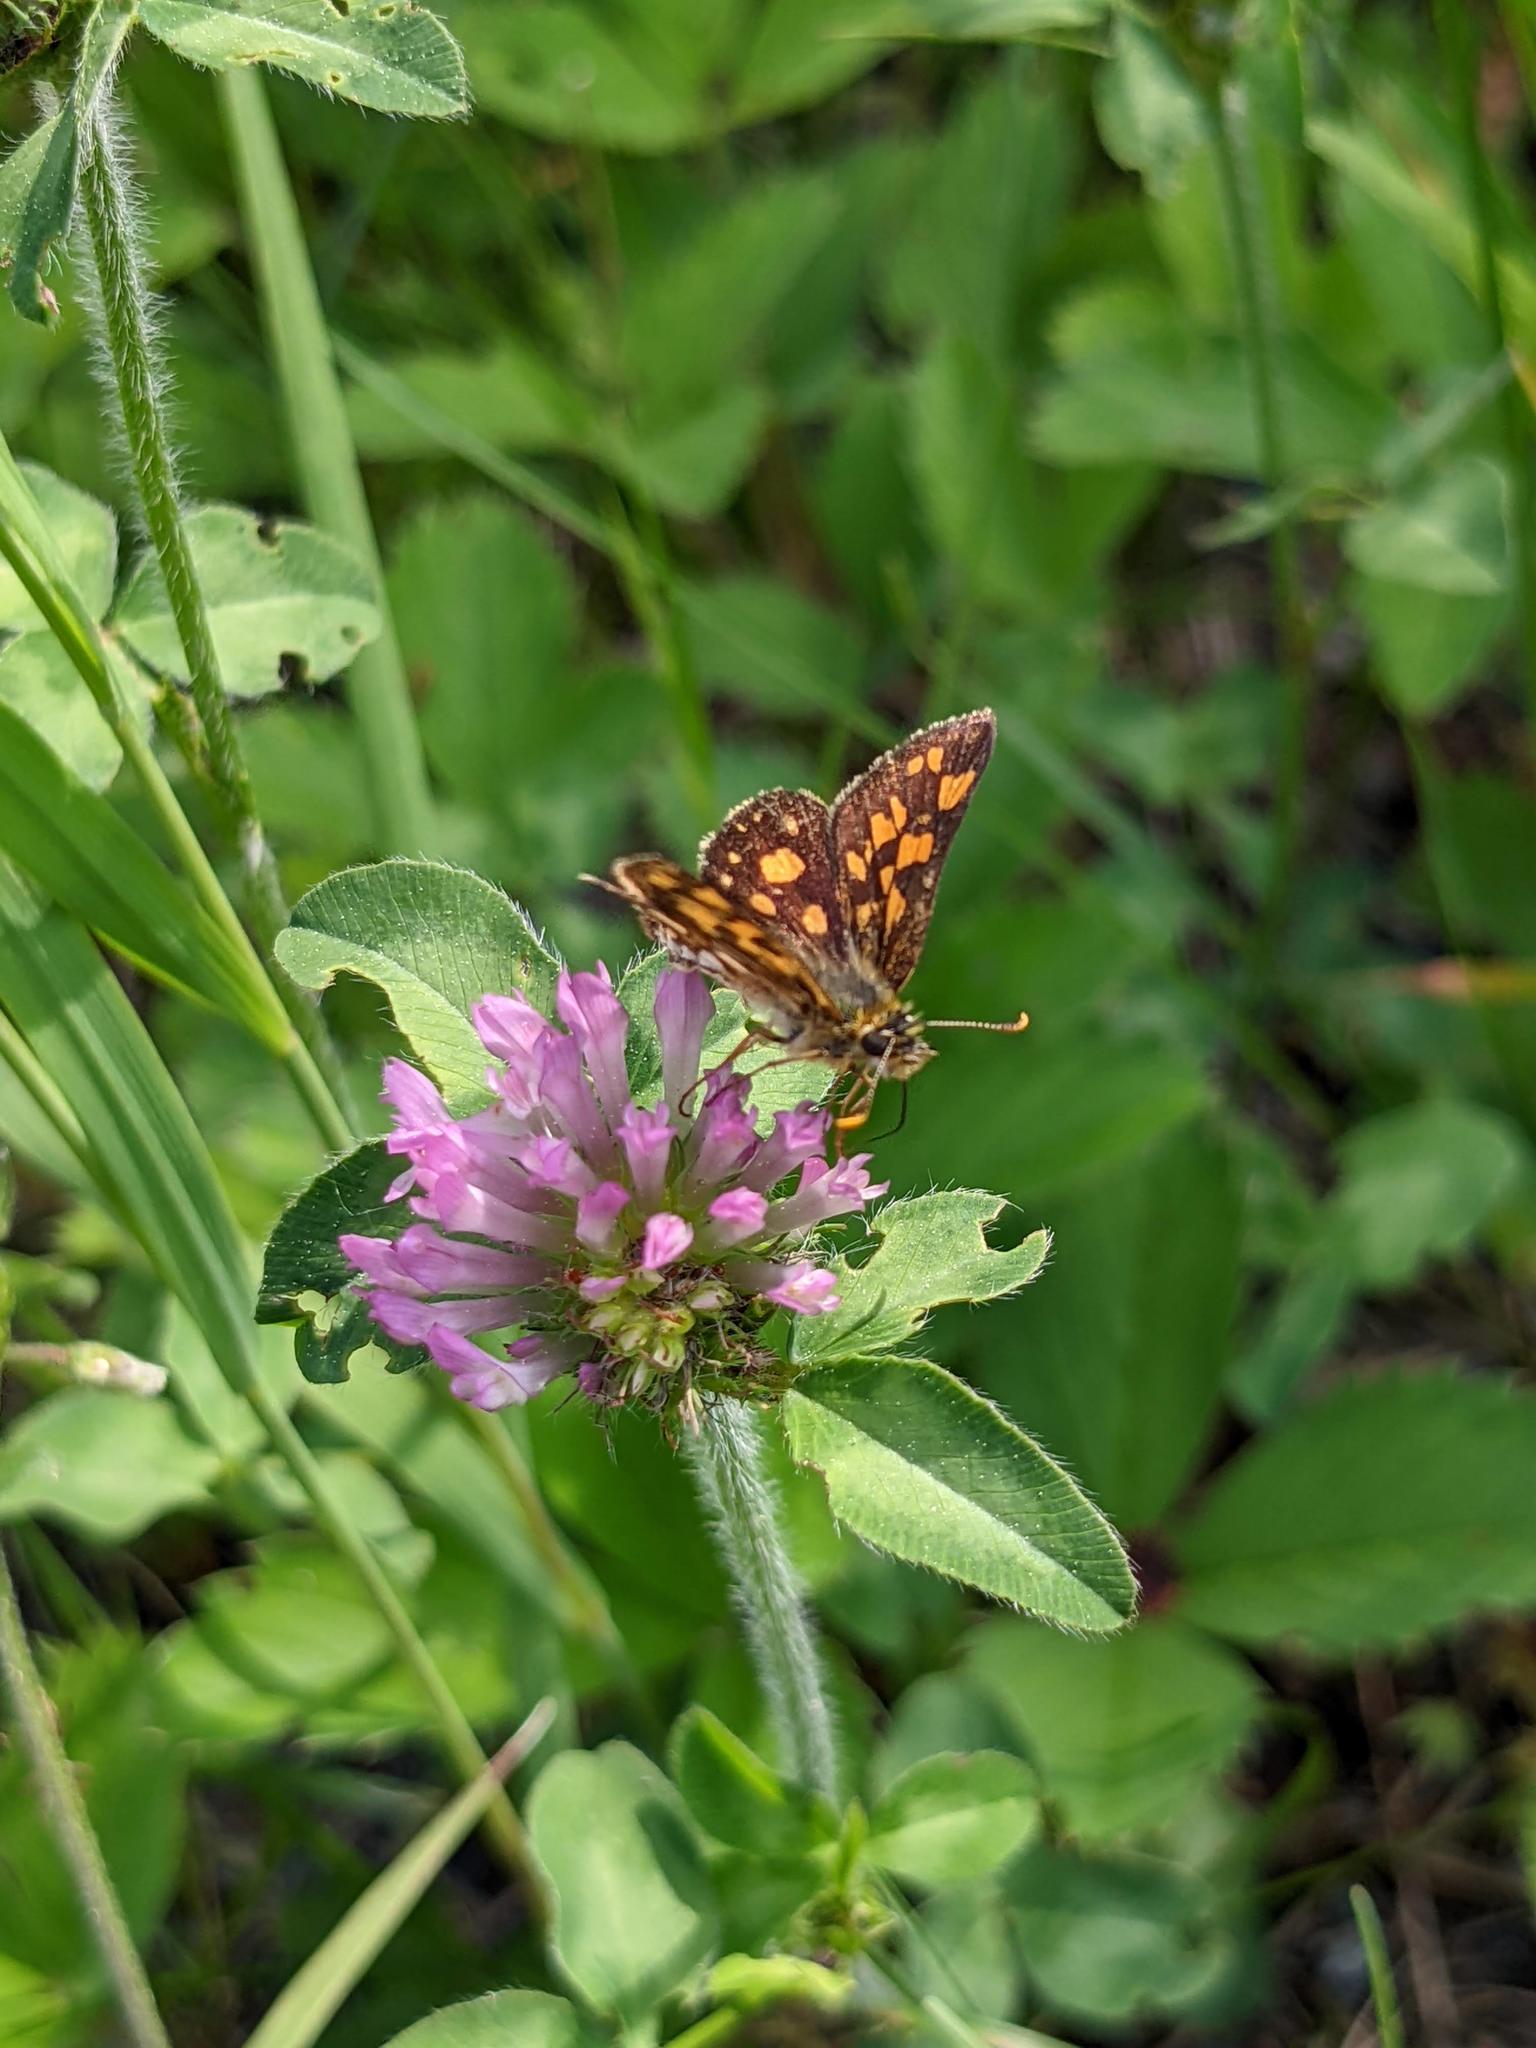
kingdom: Animalia
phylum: Arthropoda
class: Insecta
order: Lepidoptera
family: Hesperiidae
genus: Carterocephalus
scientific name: Carterocephalus mandan
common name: Arctic skipperling
